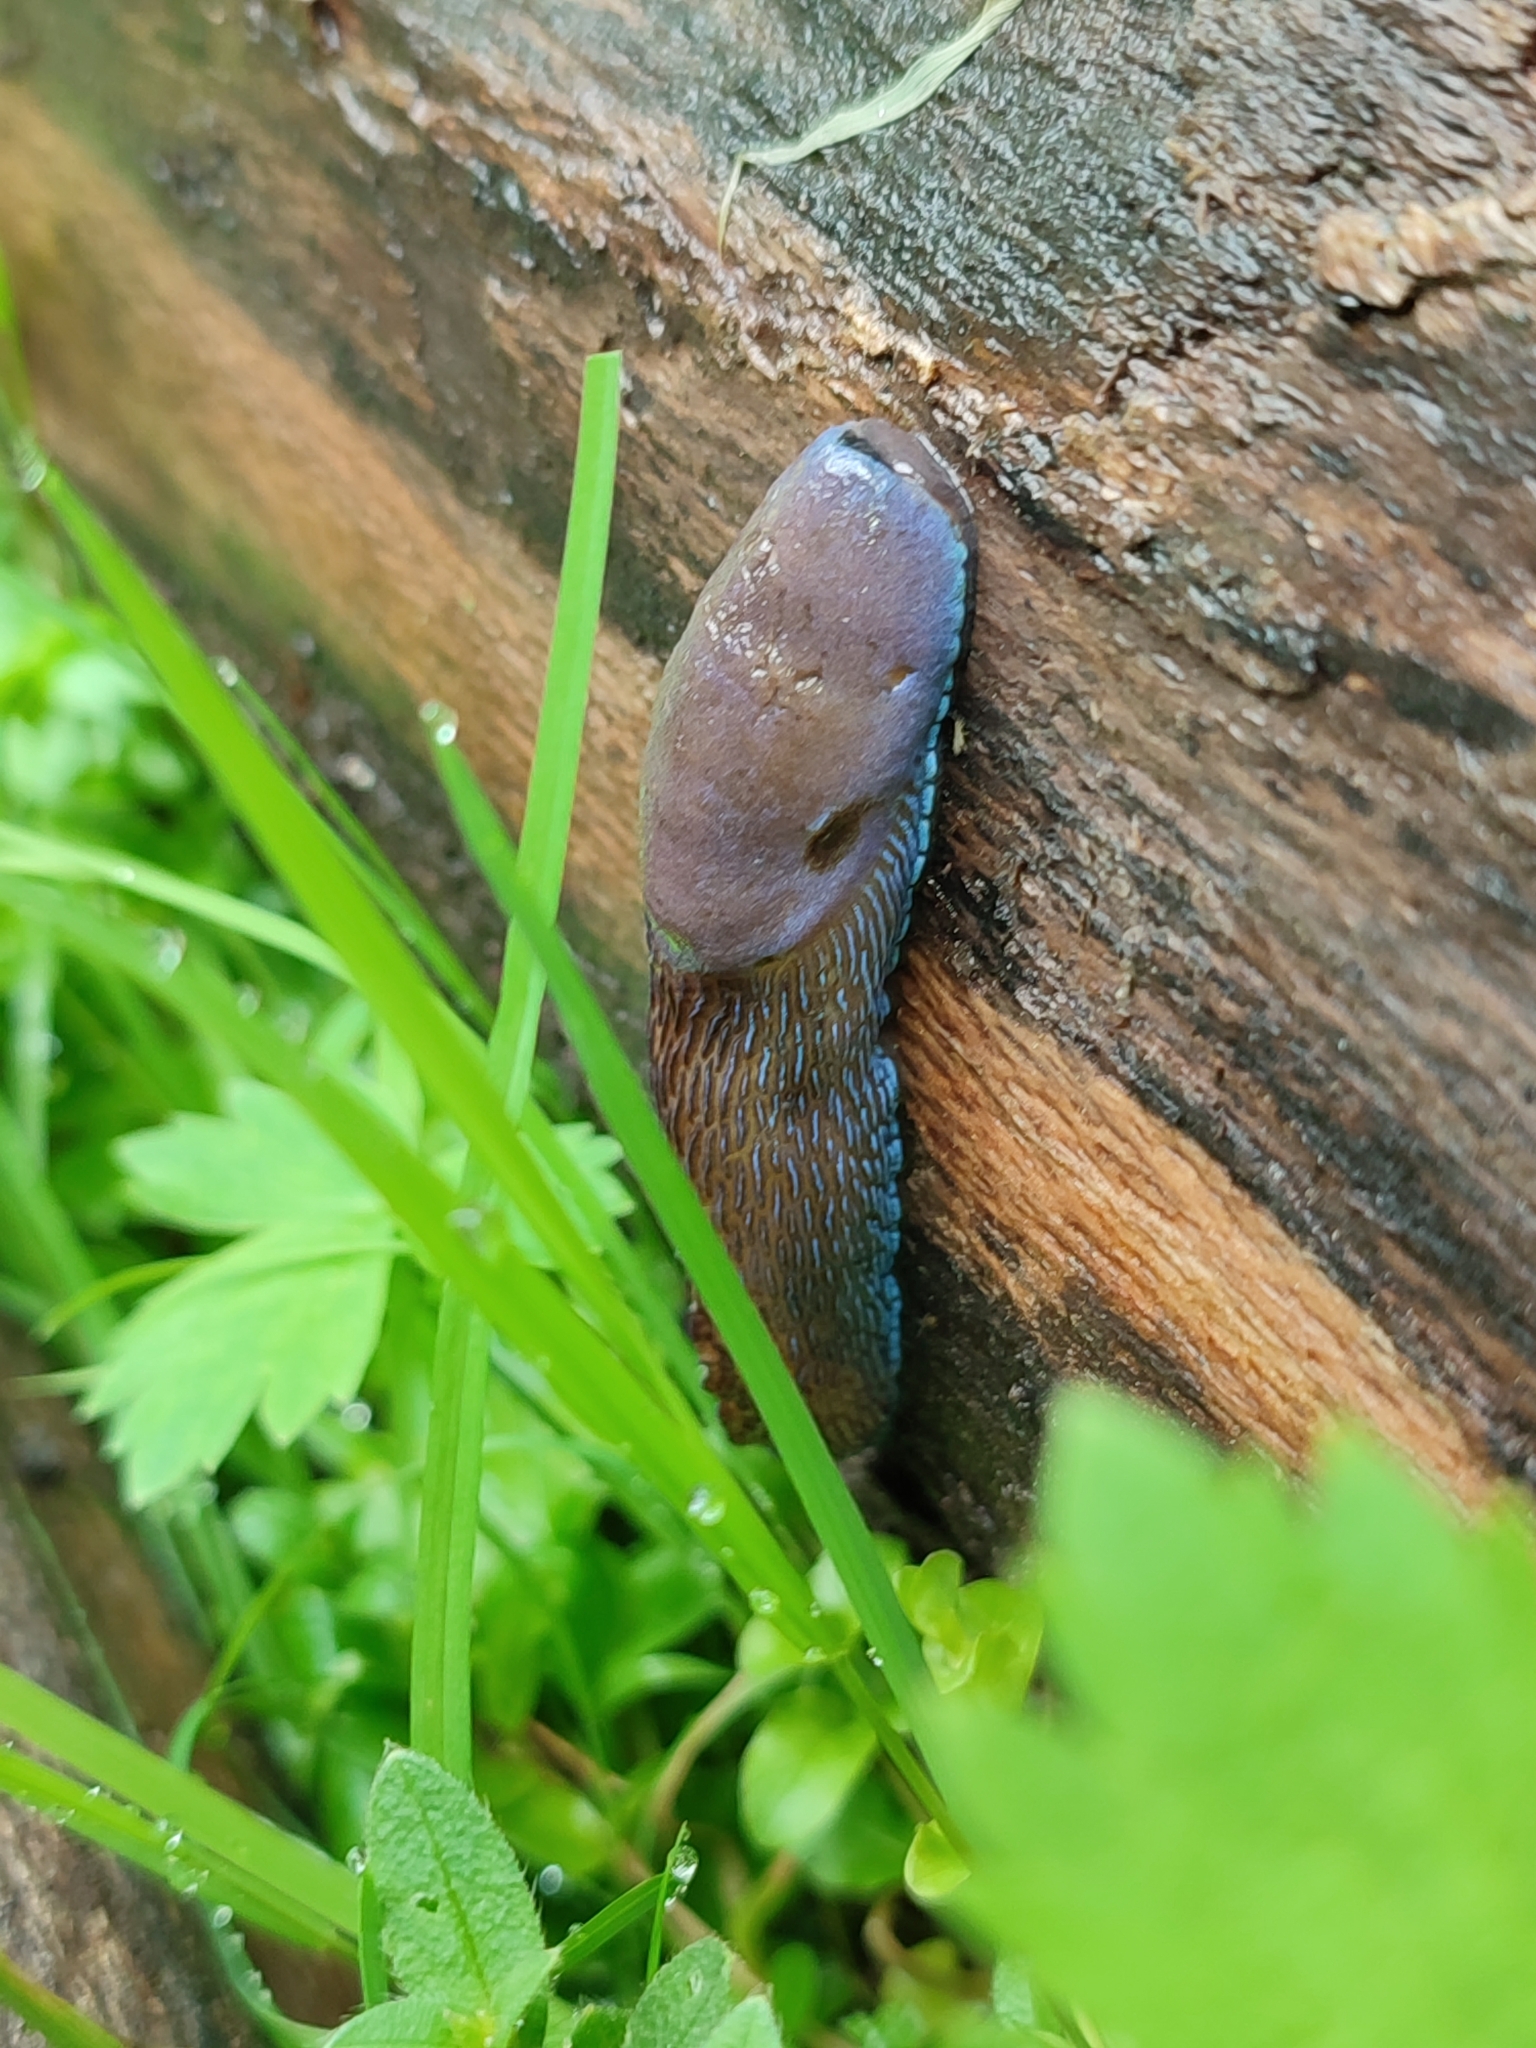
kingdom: Animalia
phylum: Mollusca
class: Gastropoda
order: Stylommatophora
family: Limacidae
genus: Bielzia
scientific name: Bielzia coerulans
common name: Carpathian blue slug
